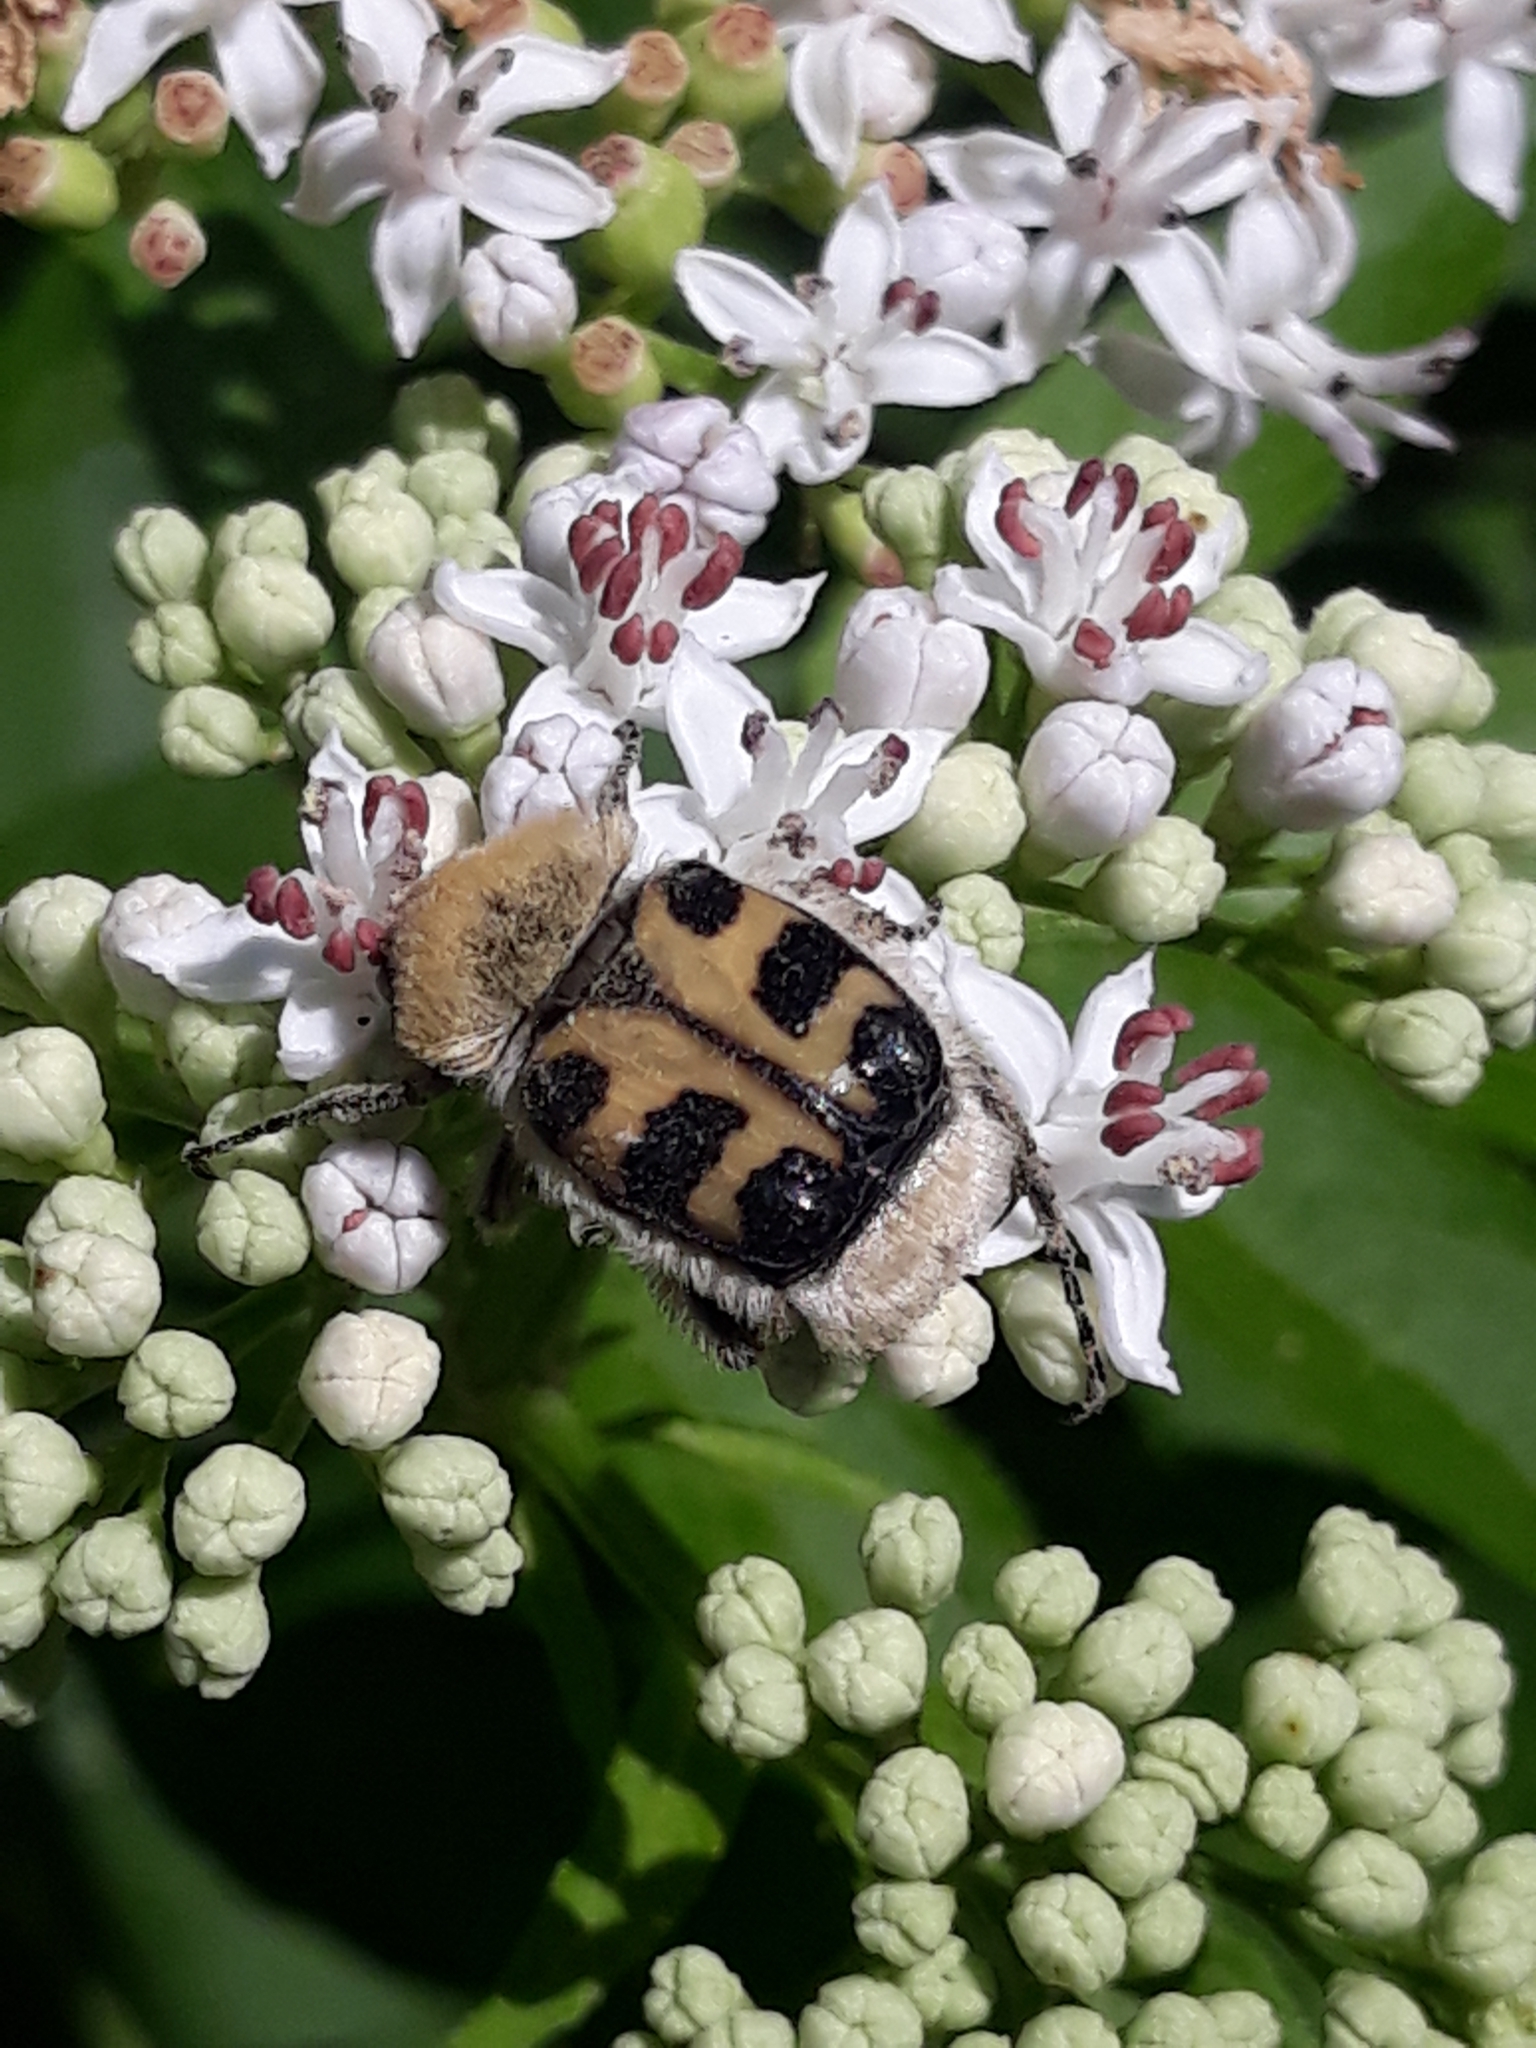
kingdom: Animalia
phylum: Arthropoda
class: Insecta
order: Coleoptera
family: Scarabaeidae
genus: Trichius
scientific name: Trichius gallicus
